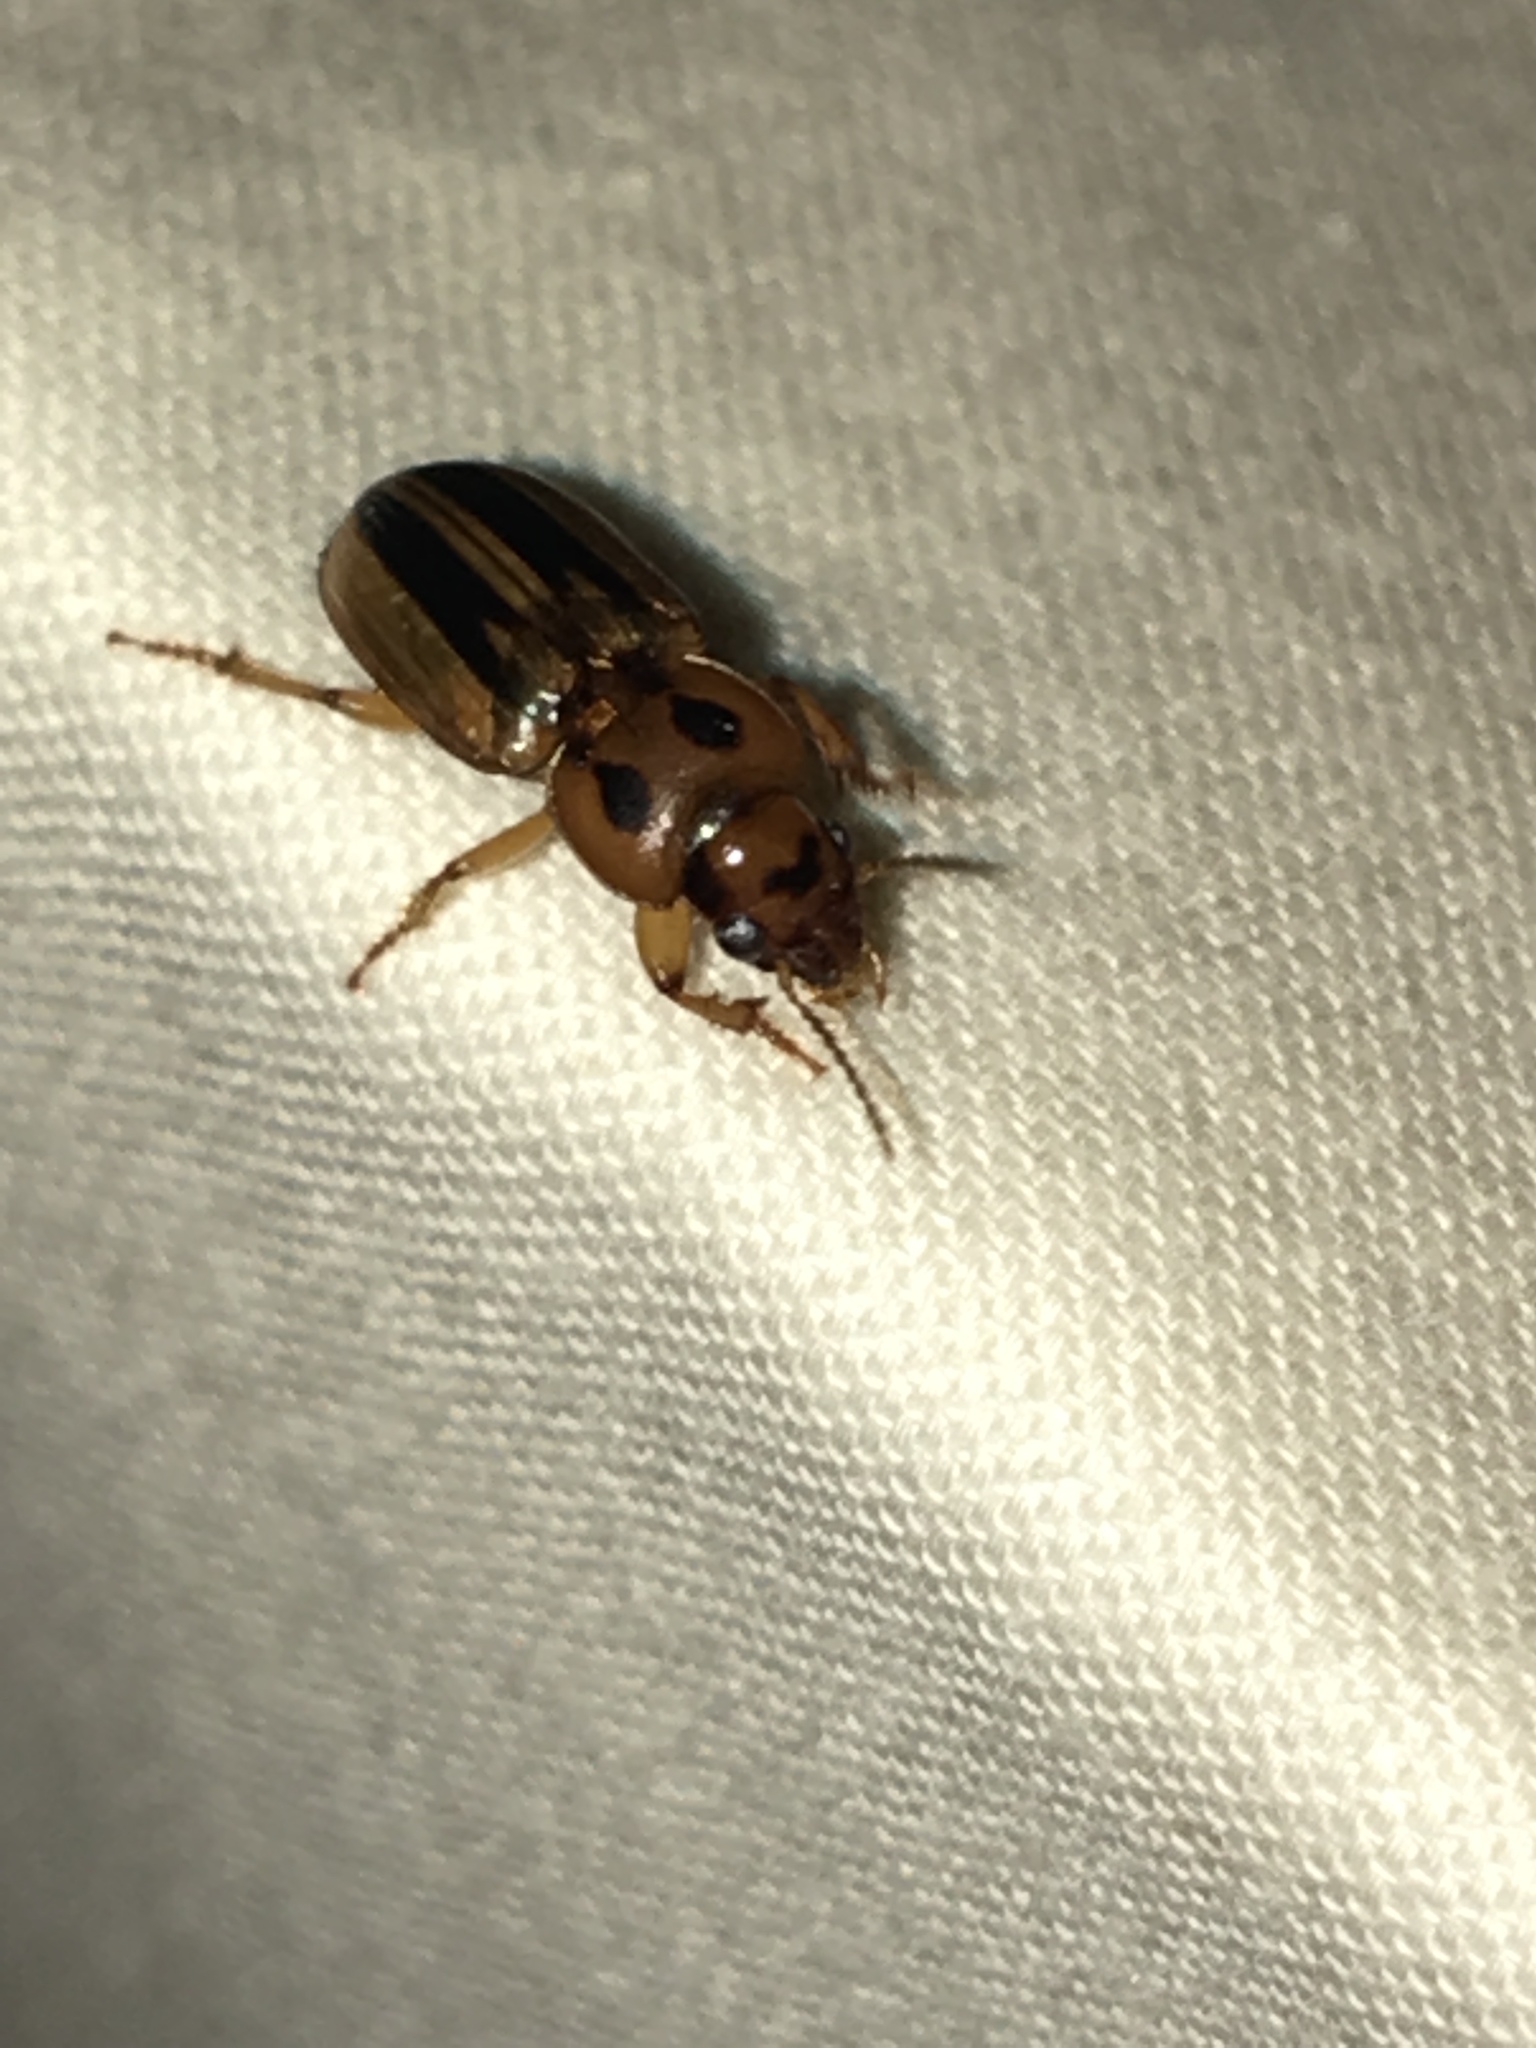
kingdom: Animalia
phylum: Arthropoda
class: Insecta
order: Coleoptera
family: Carabidae
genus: Stenolophus
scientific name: Stenolophus lineola
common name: Lined stenolophus
